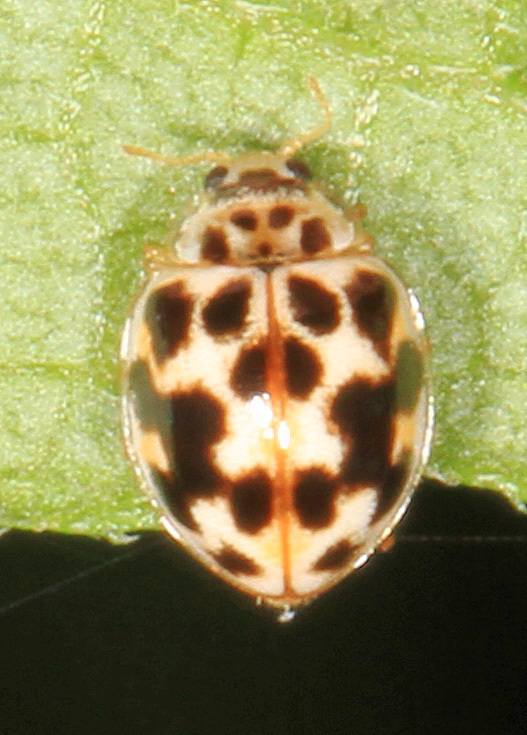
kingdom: Animalia
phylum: Arthropoda
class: Insecta
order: Coleoptera
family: Coccinellidae
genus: Psyllobora
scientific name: Psyllobora vigintimaculata
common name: Ladybird beetle
